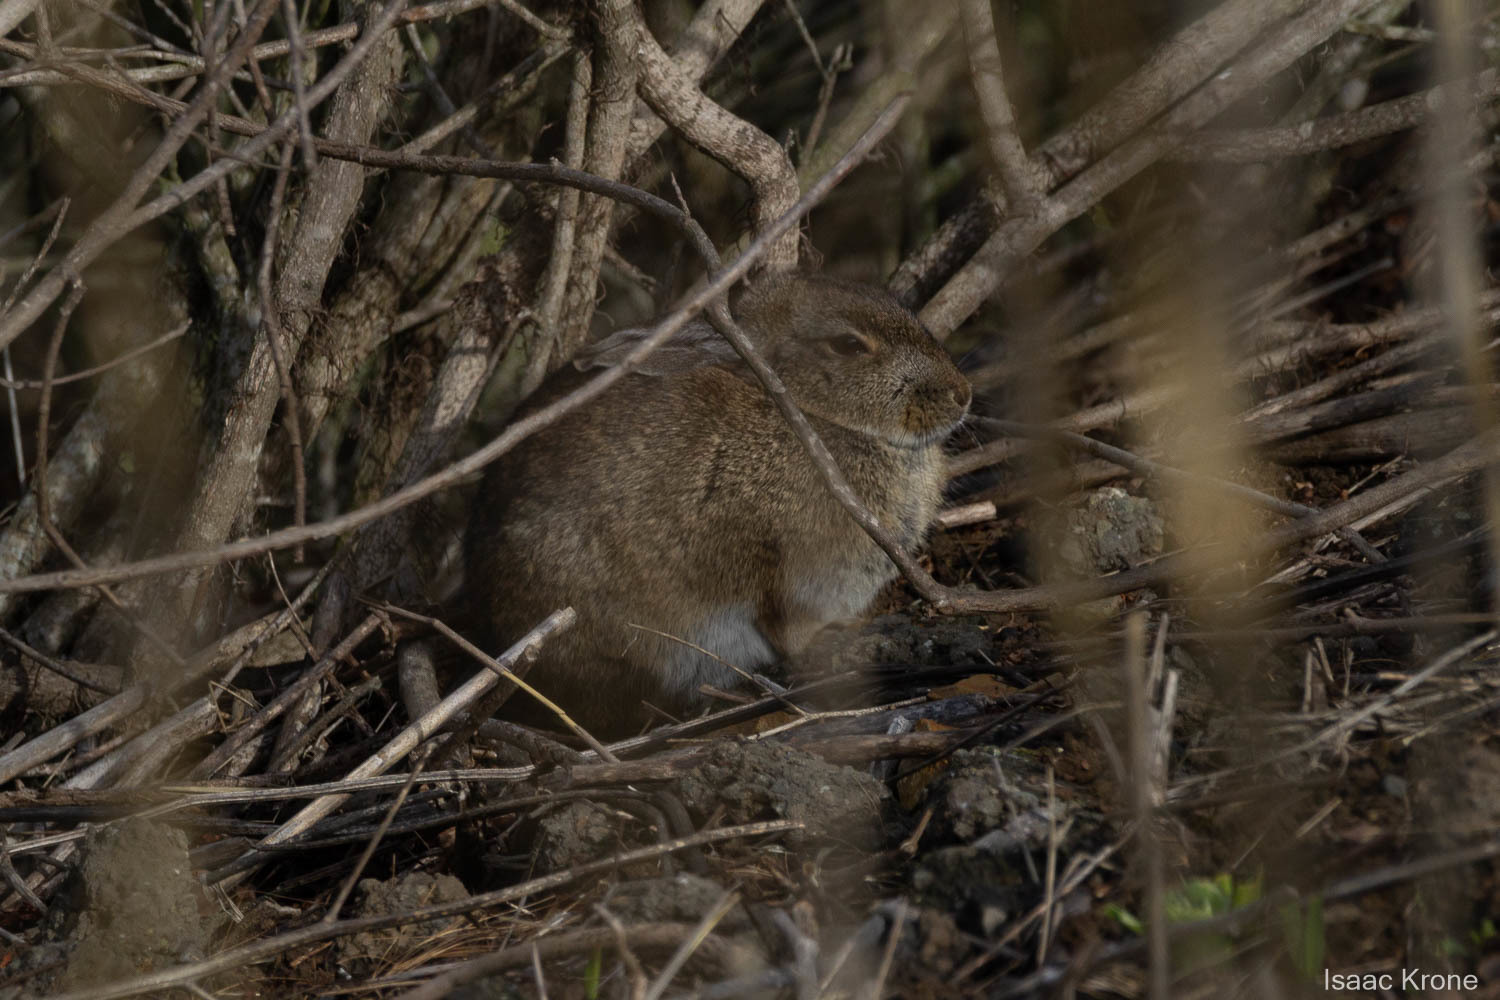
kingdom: Animalia
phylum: Chordata
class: Mammalia
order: Lagomorpha
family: Leporidae
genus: Sylvilagus
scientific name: Sylvilagus bachmani
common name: Brush rabbit
